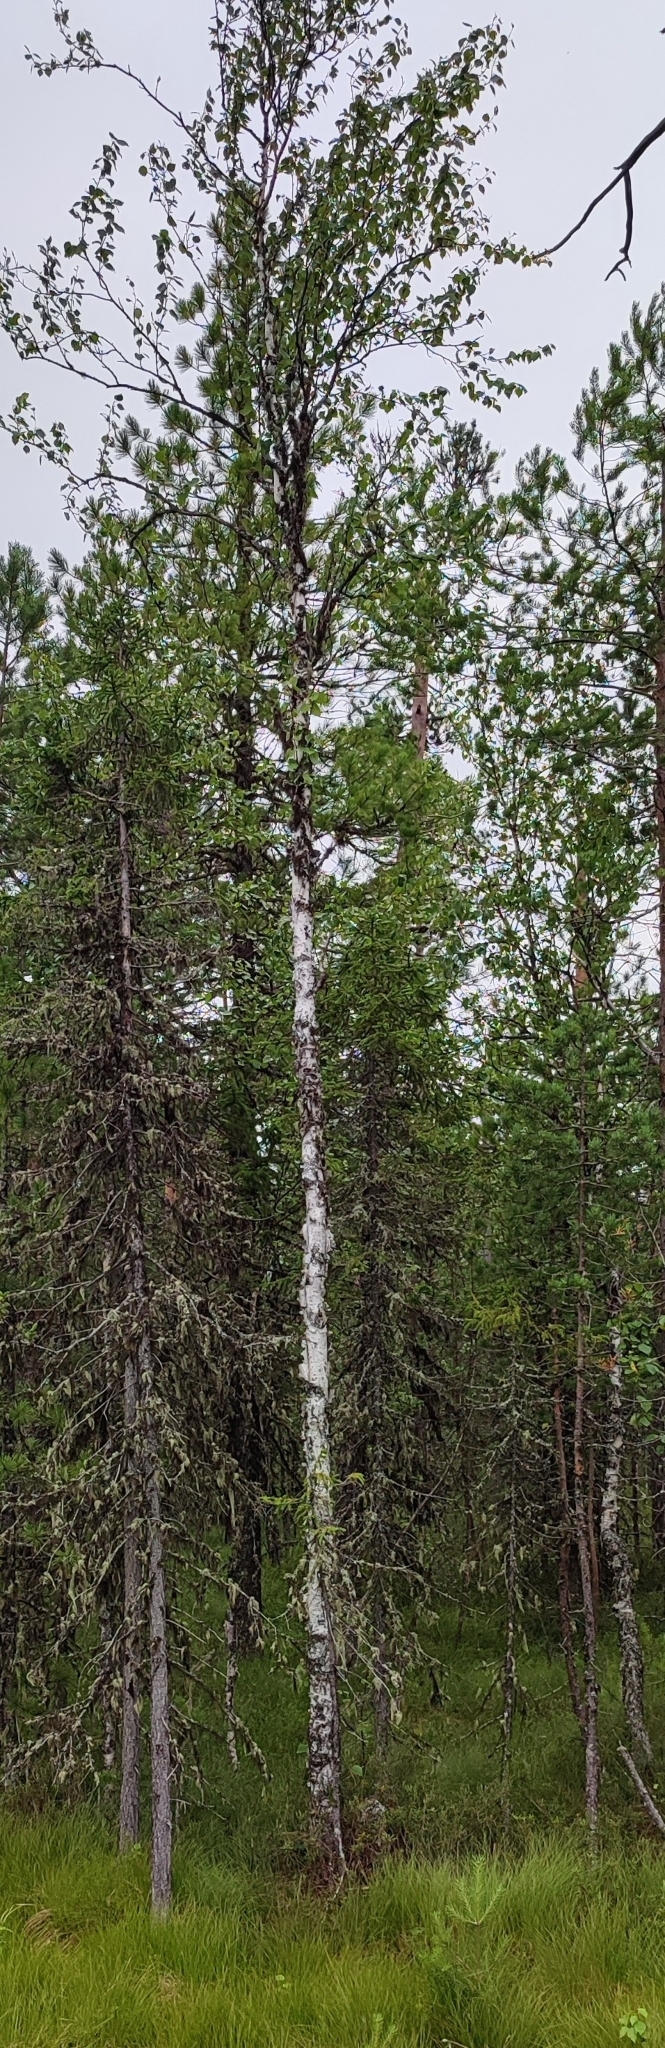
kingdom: Plantae
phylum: Tracheophyta
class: Magnoliopsida
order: Fagales
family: Betulaceae
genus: Betula
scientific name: Betula pubescens
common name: Downy birch
